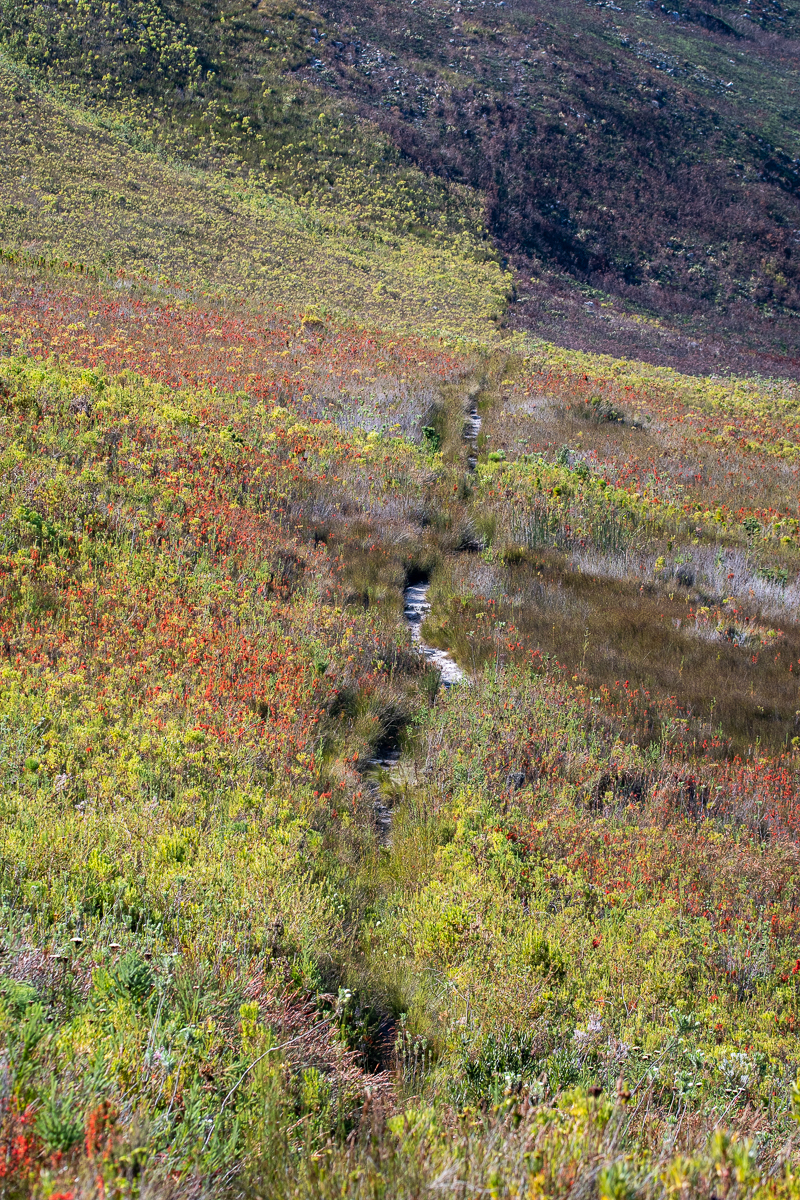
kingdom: Plantae
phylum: Tracheophyta
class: Magnoliopsida
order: Ericales
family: Ericaceae
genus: Erica
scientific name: Erica pillansii
